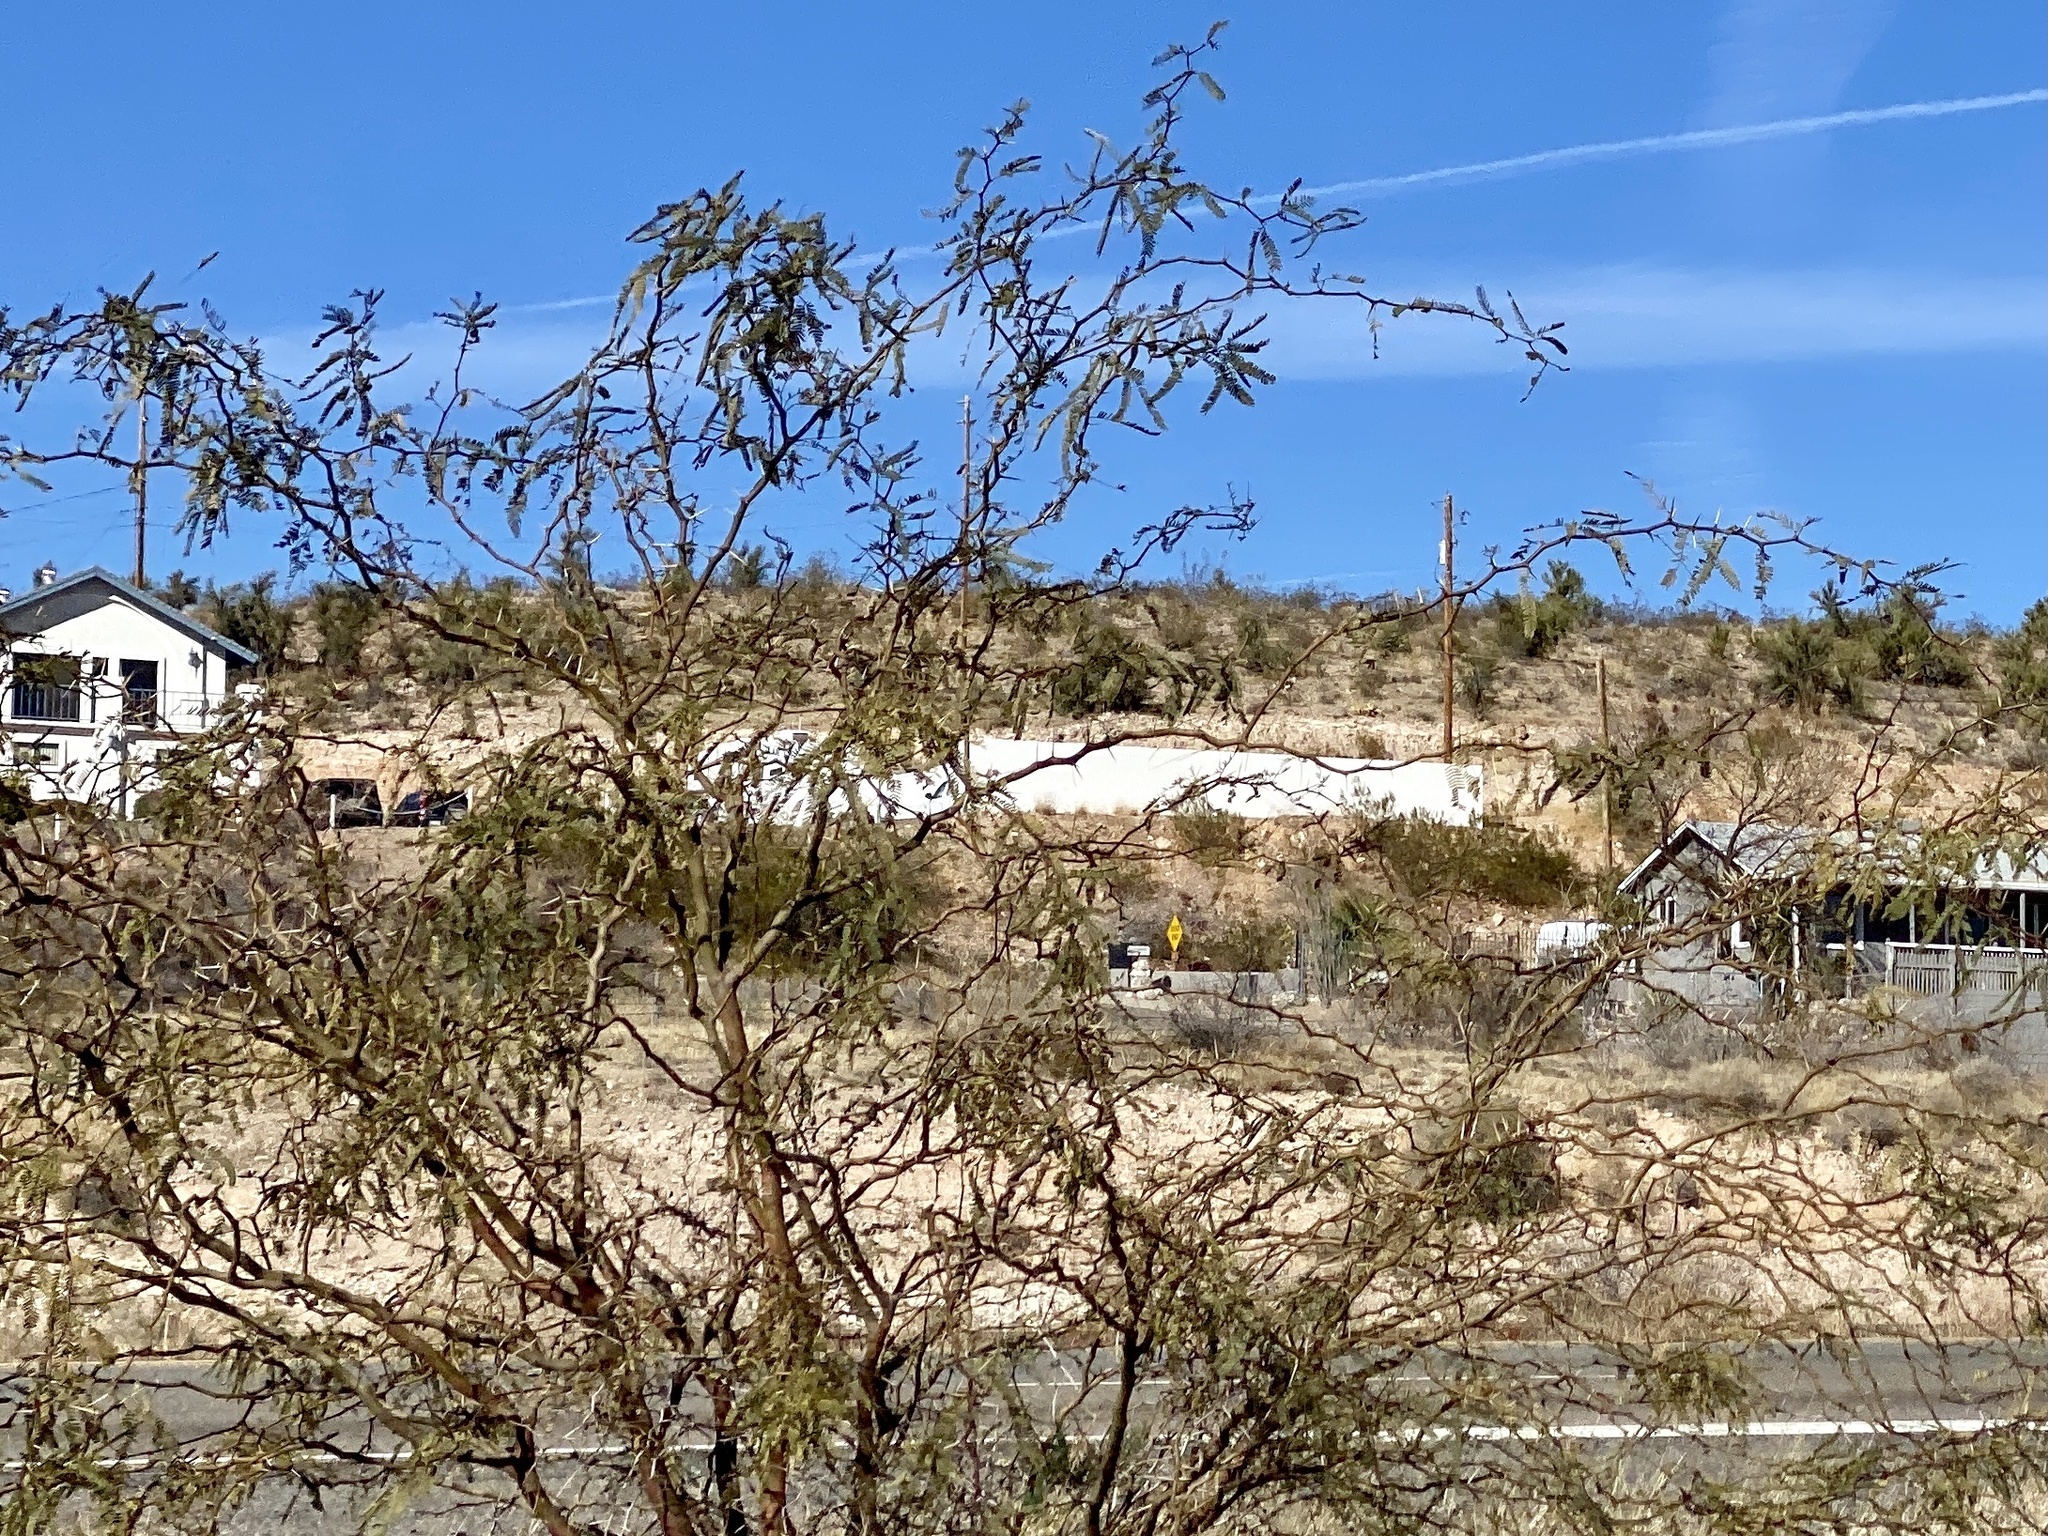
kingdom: Plantae
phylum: Tracheophyta
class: Magnoliopsida
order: Fabales
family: Fabaceae
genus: Prosopis
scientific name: Prosopis glandulosa
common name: Honey mesquite
